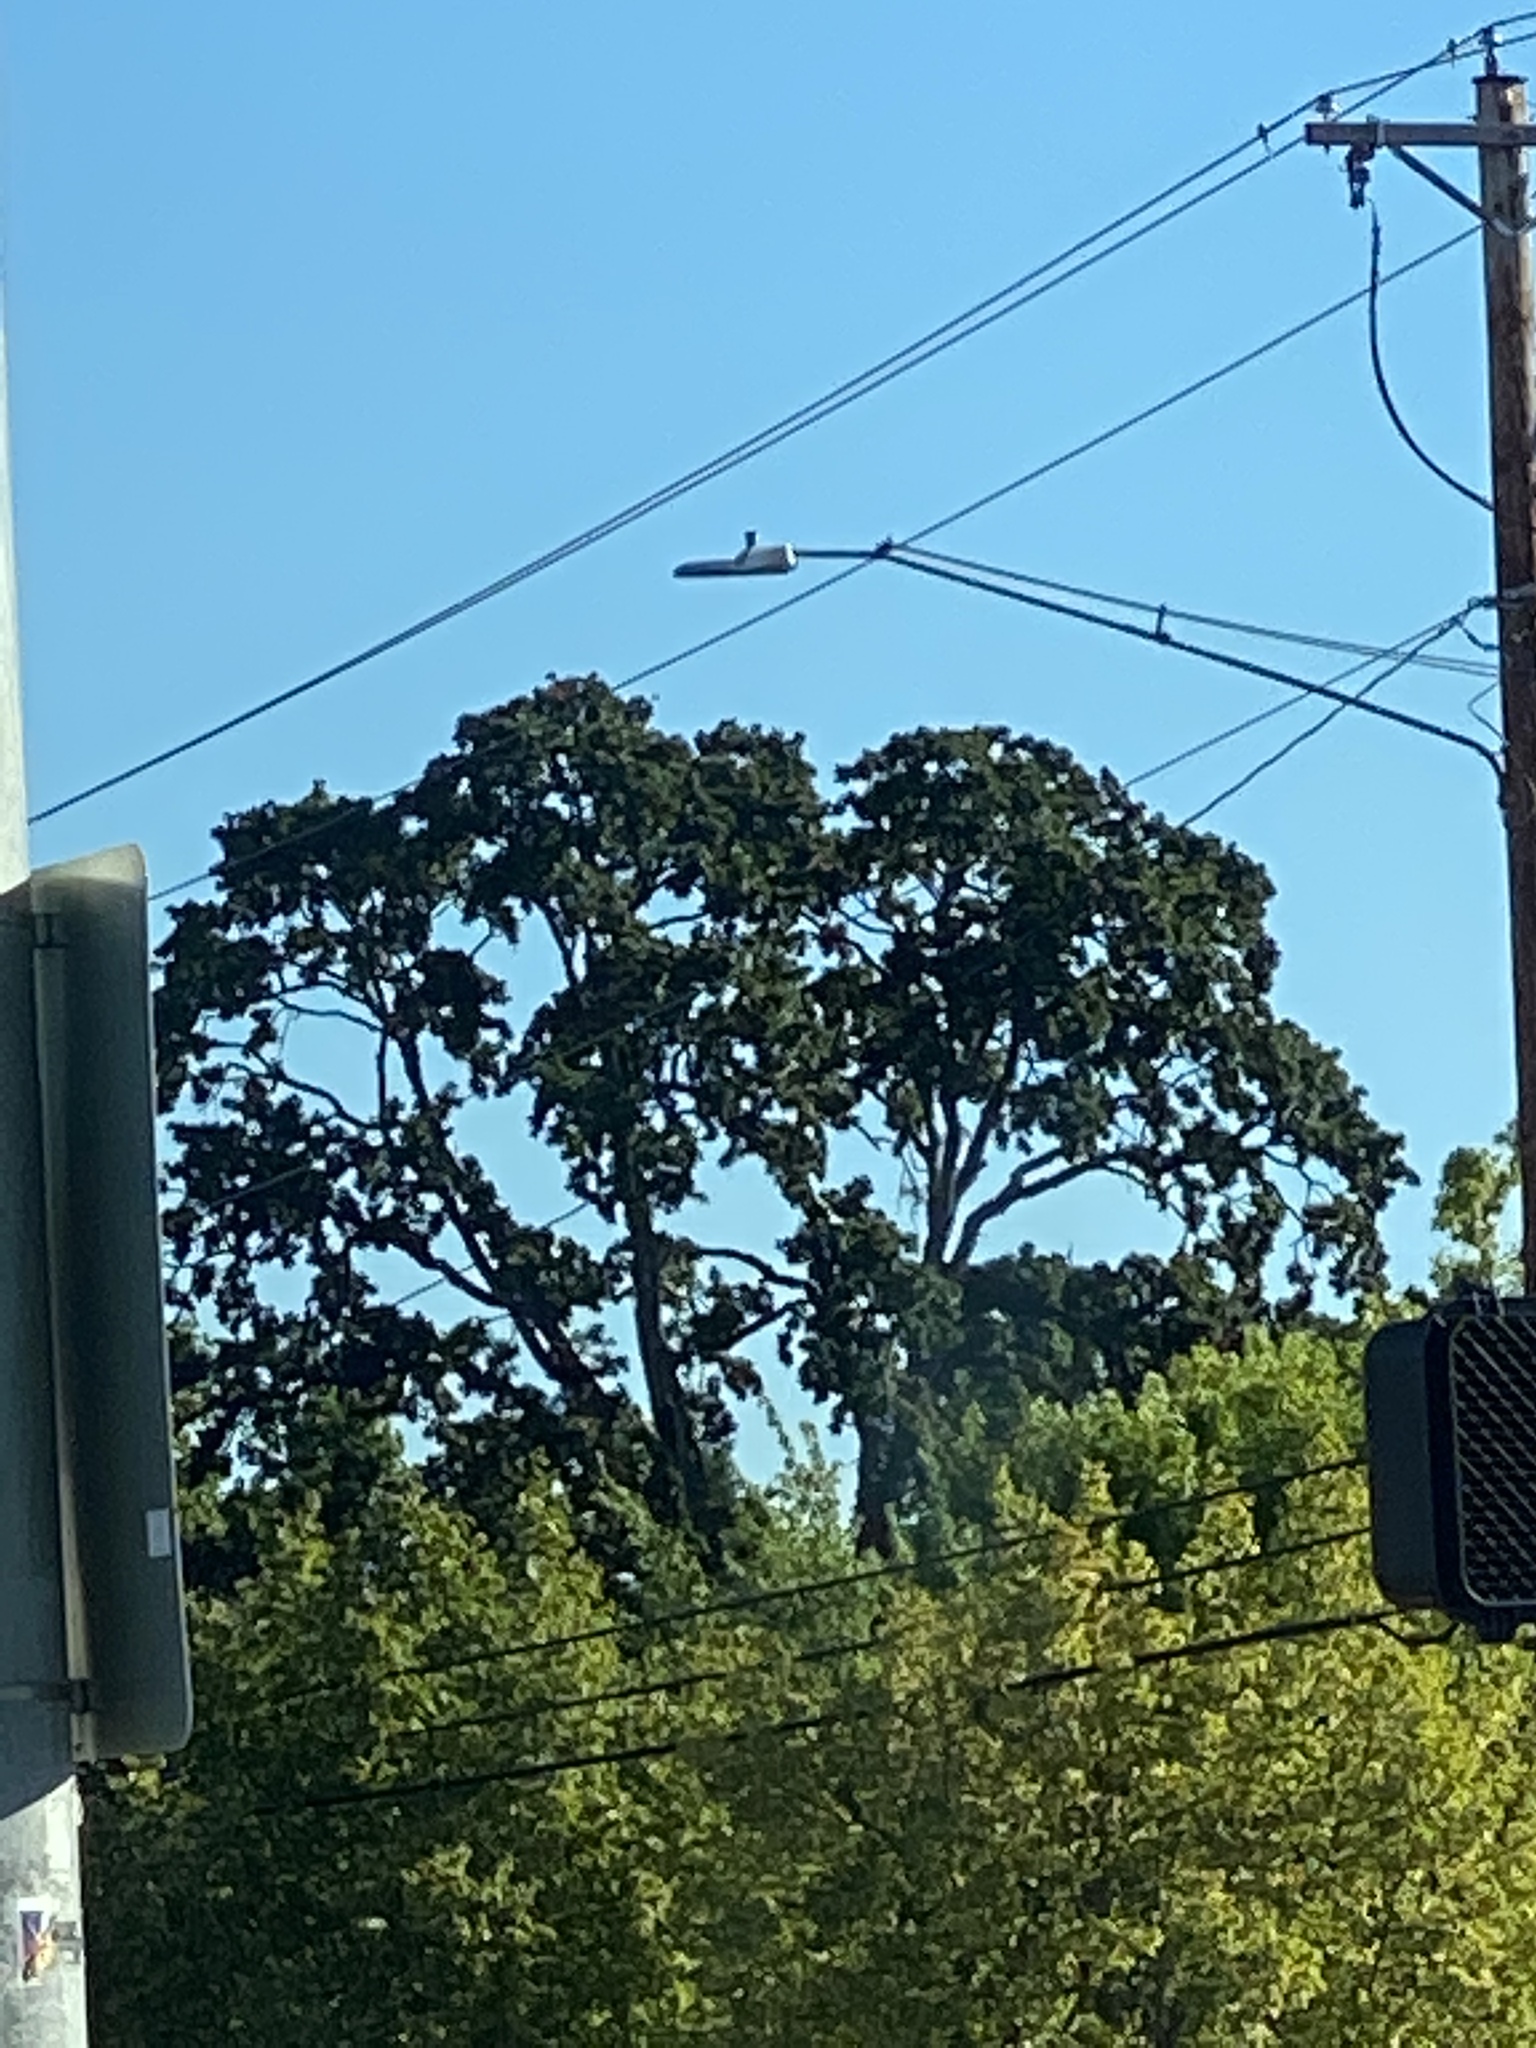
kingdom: Plantae
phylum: Tracheophyta
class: Magnoliopsida
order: Fagales
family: Fagaceae
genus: Quercus
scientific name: Quercus garryana
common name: Garry oak
